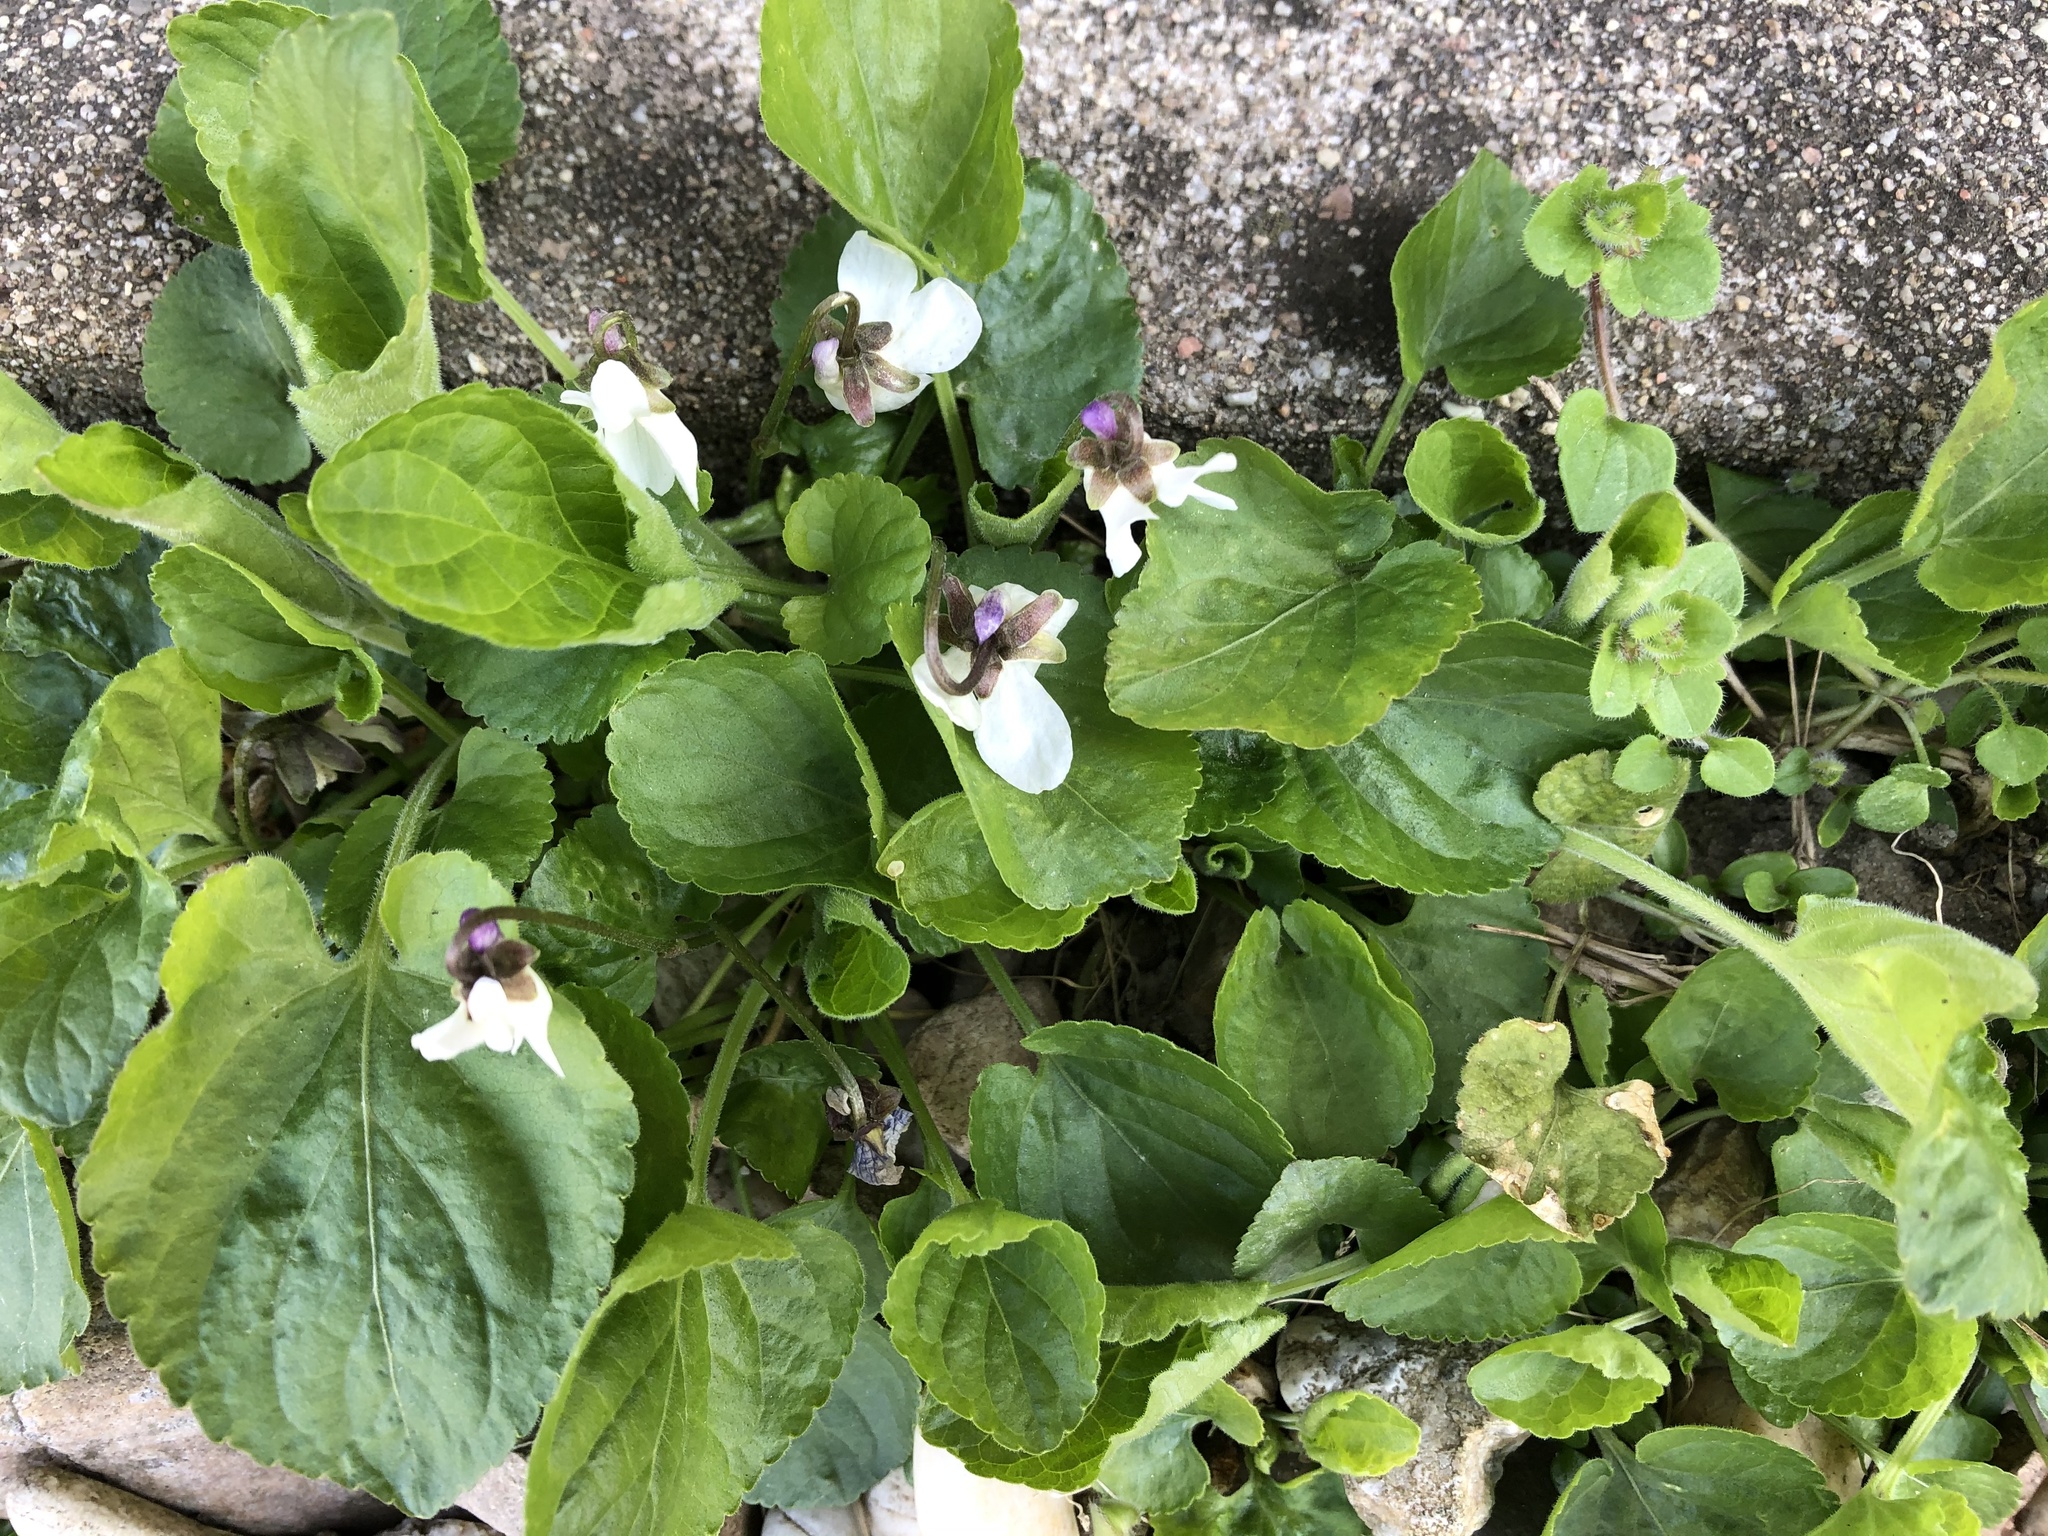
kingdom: Plantae
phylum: Tracheophyta
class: Magnoliopsida
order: Malpighiales
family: Violaceae
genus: Viola
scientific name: Viola odorata
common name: Sweet violet
